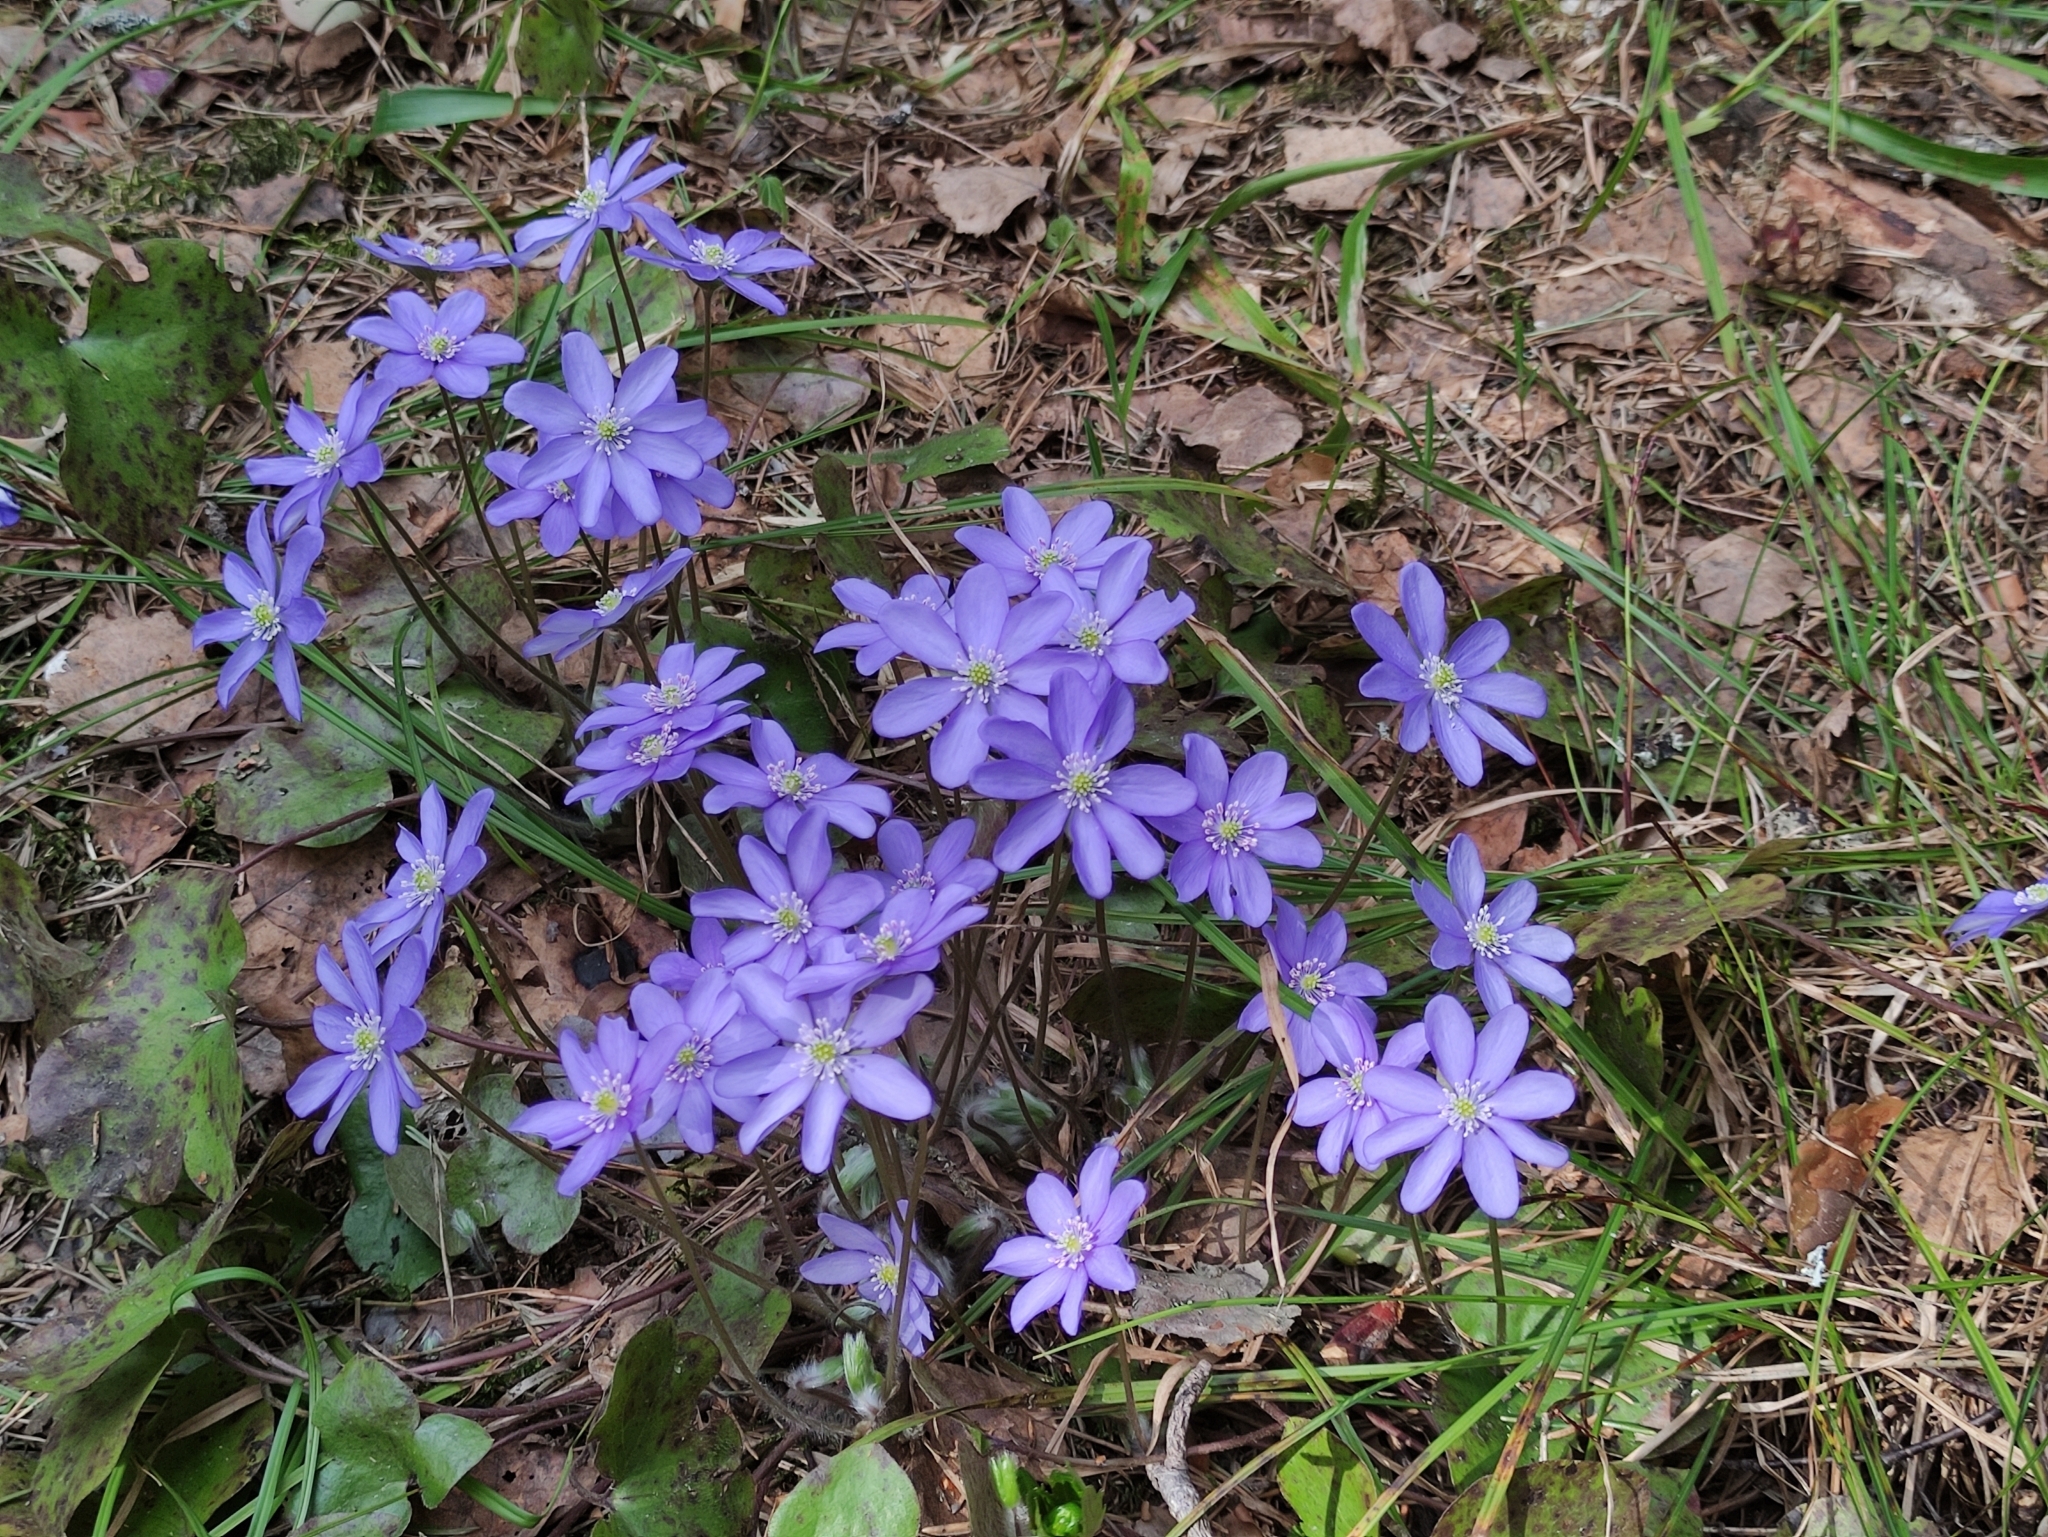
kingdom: Plantae
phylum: Tracheophyta
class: Magnoliopsida
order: Ranunculales
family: Ranunculaceae
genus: Hepatica
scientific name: Hepatica nobilis
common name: Liverleaf
